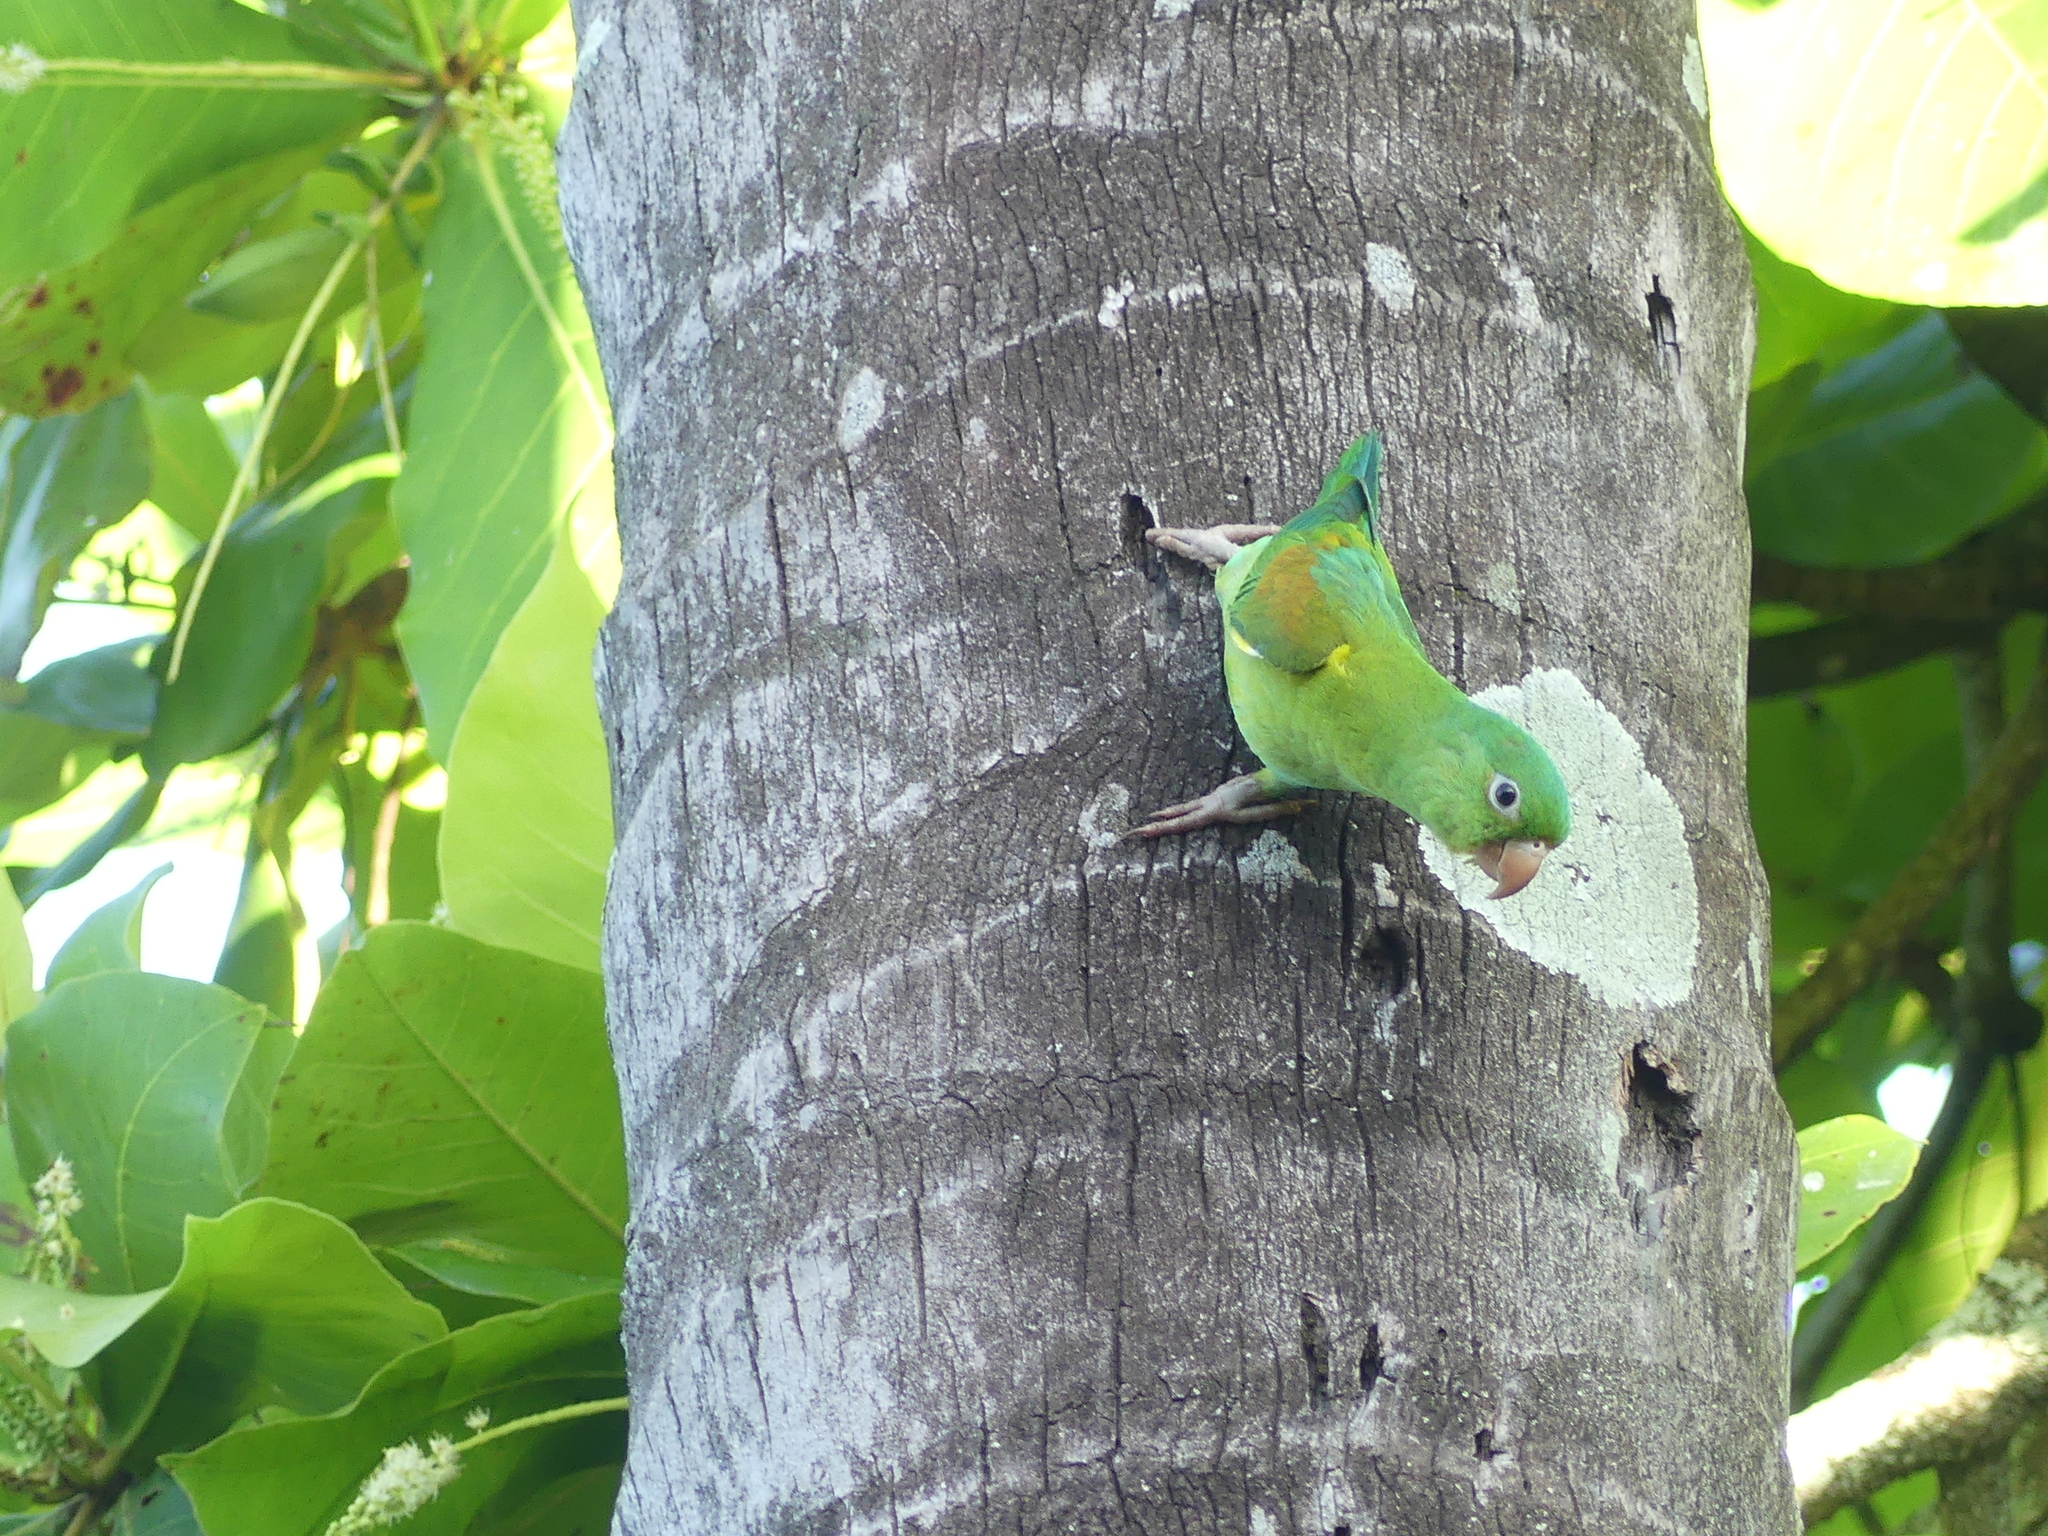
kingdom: Animalia
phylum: Chordata
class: Aves
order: Psittaciformes
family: Psittacidae
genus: Brotogeris
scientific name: Brotogeris jugularis
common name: Orange-chinned parakeet
